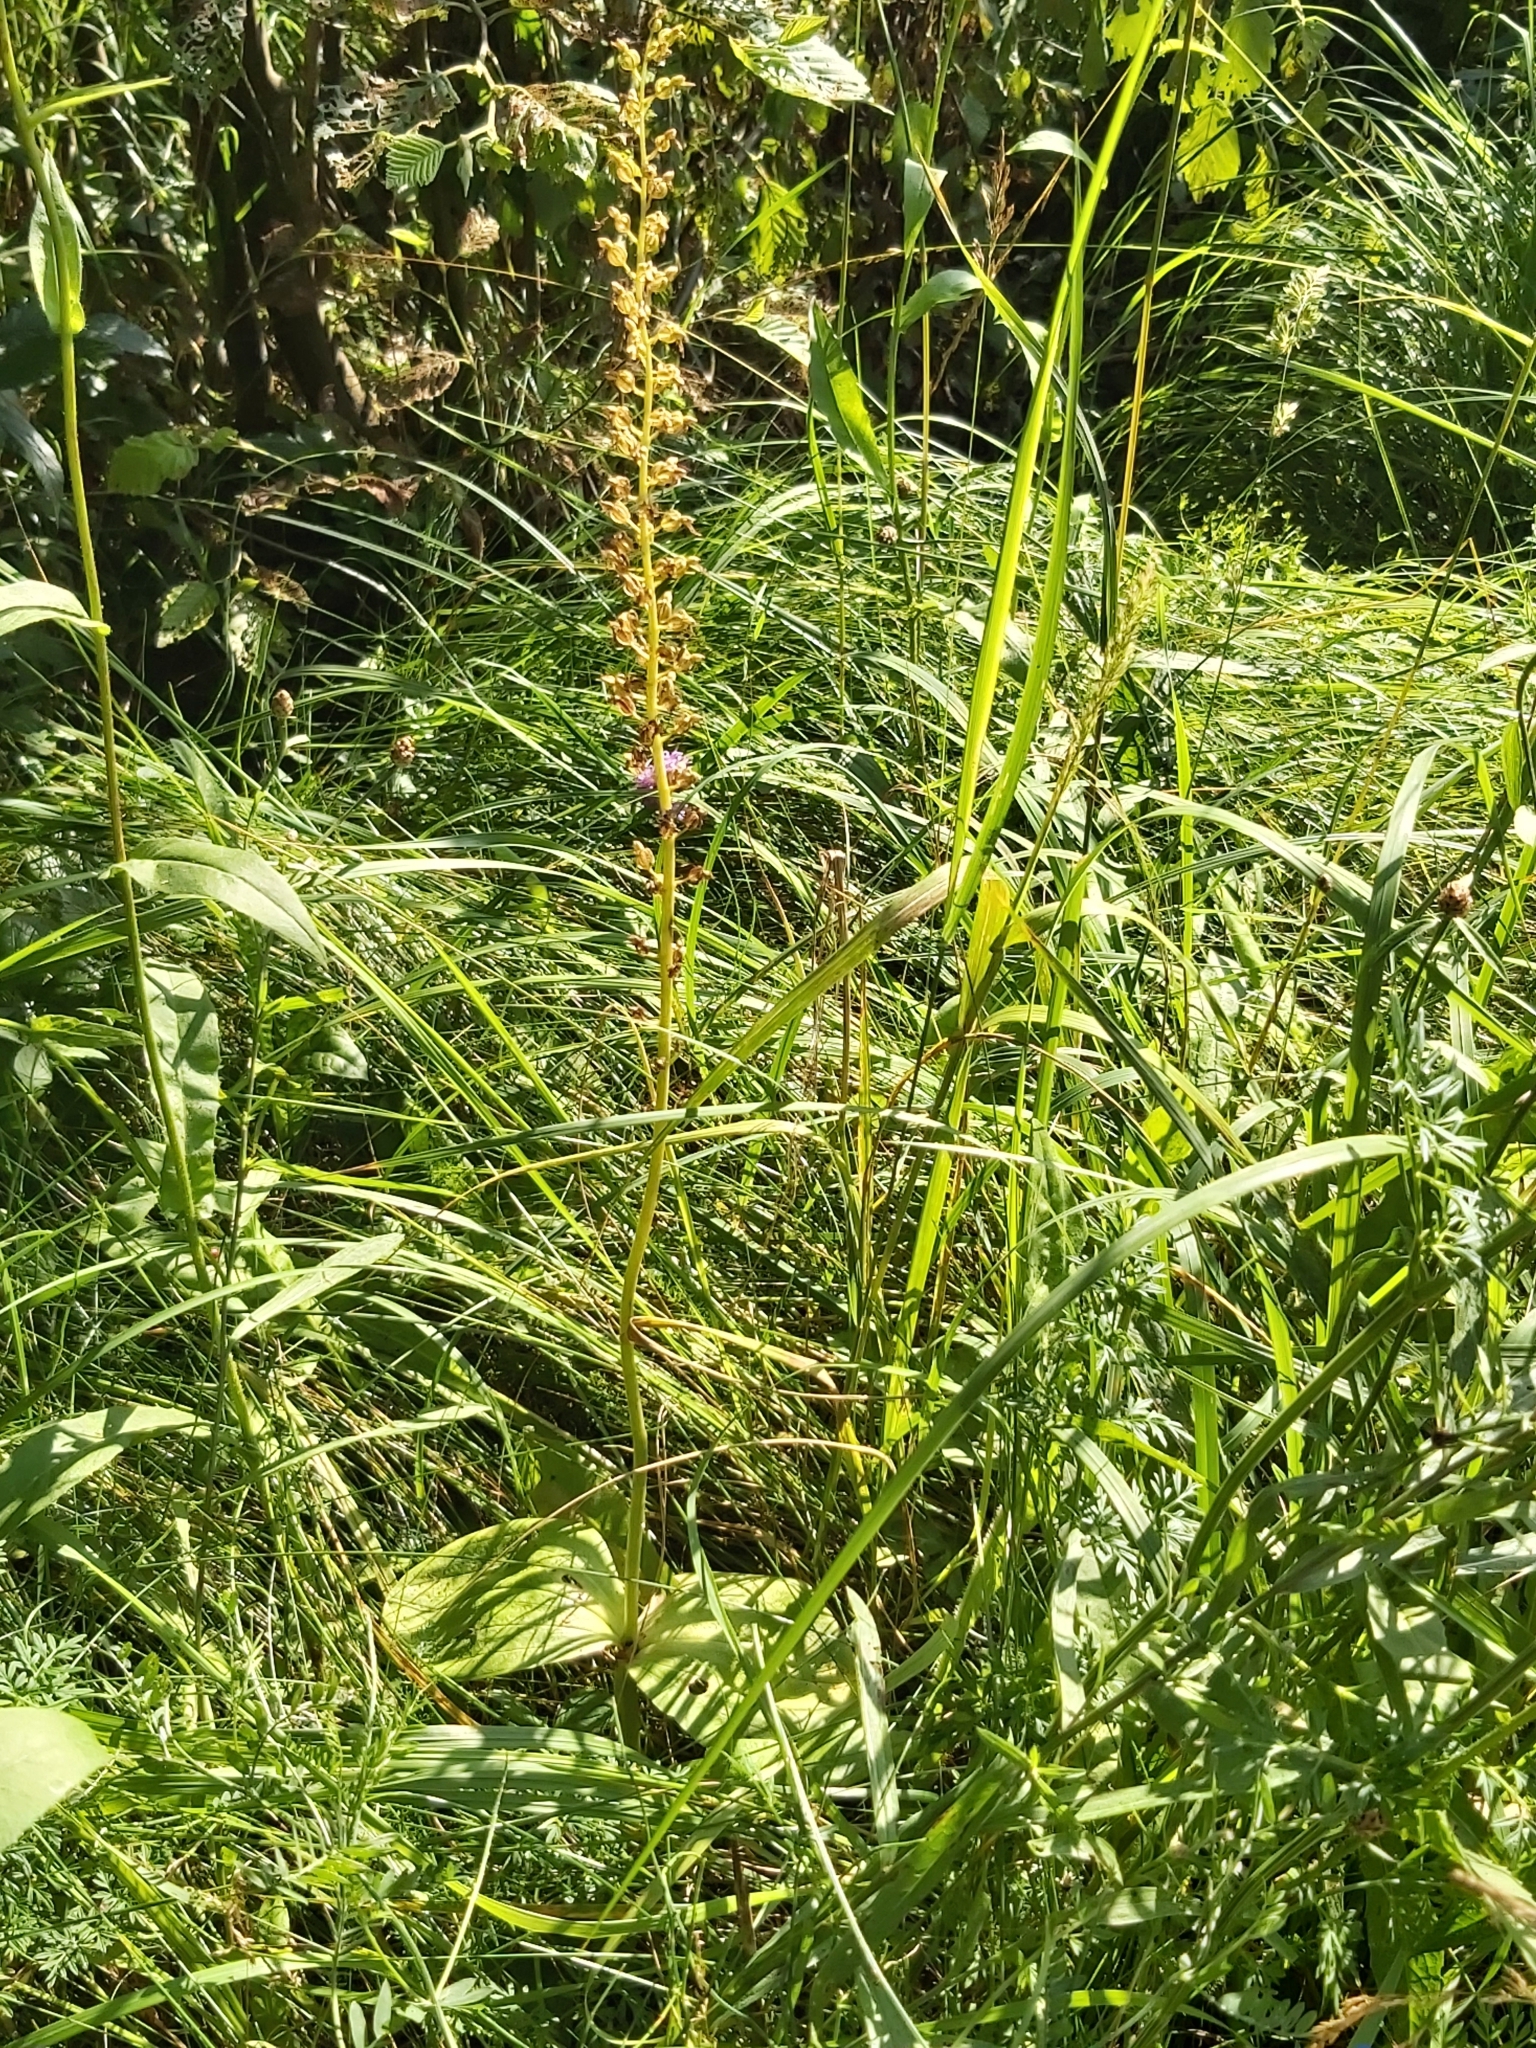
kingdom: Plantae
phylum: Tracheophyta
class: Liliopsida
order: Asparagales
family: Orchidaceae
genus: Neottia
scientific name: Neottia ovata
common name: Common twayblade
